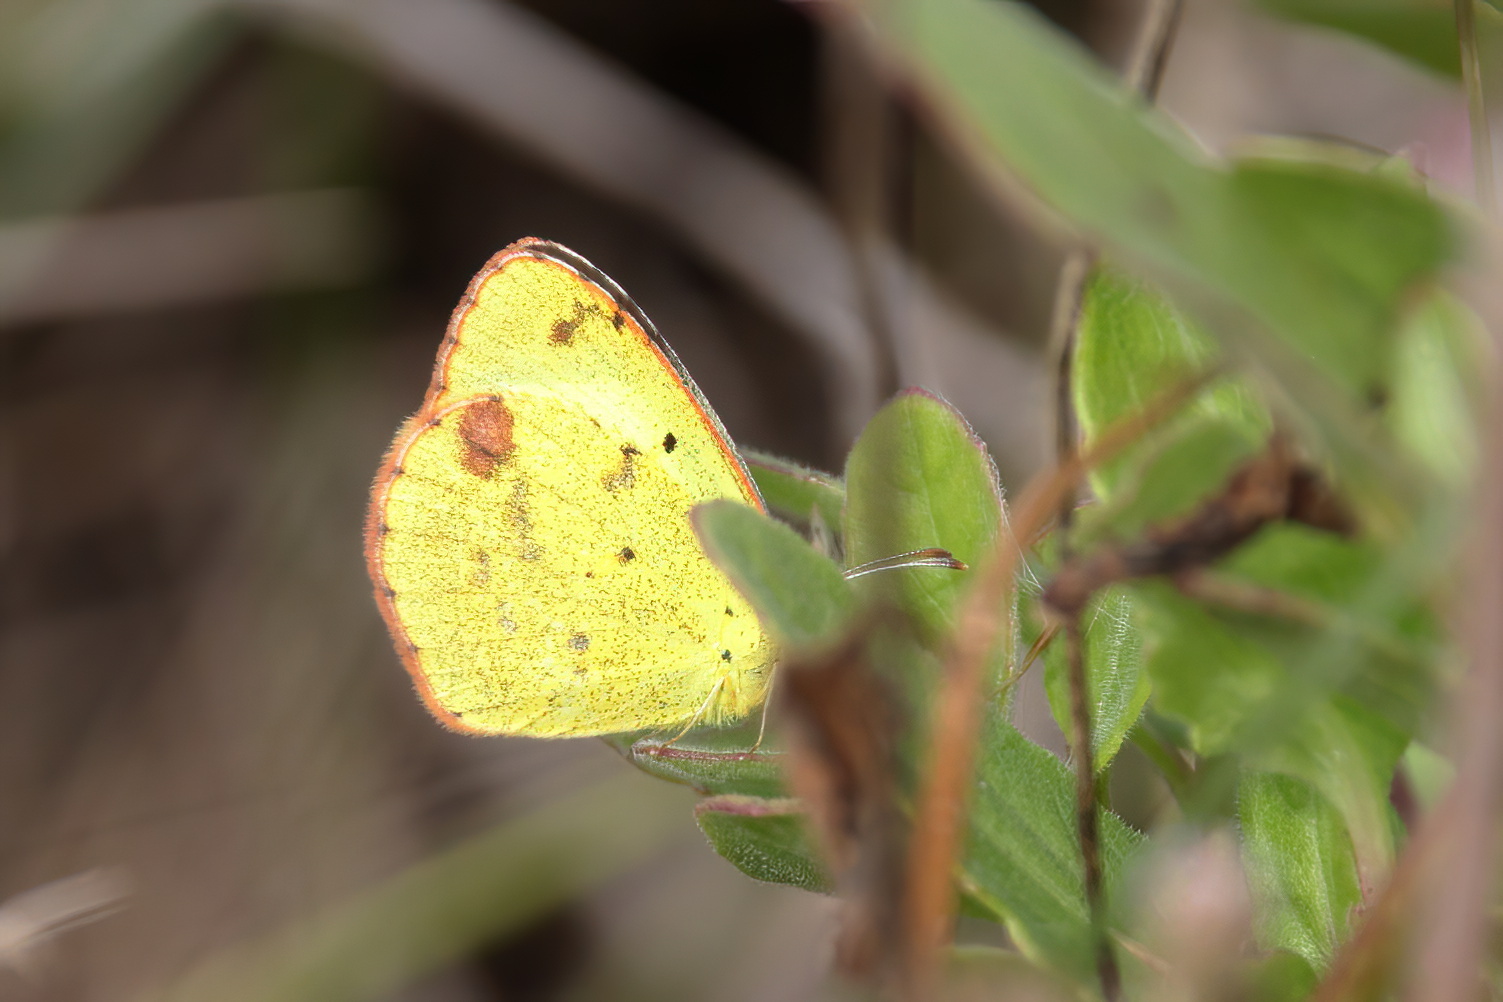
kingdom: Animalia
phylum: Arthropoda
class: Insecta
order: Lepidoptera
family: Pieridae
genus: Pyrisitia
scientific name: Pyrisitia lisa
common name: Little yellow
